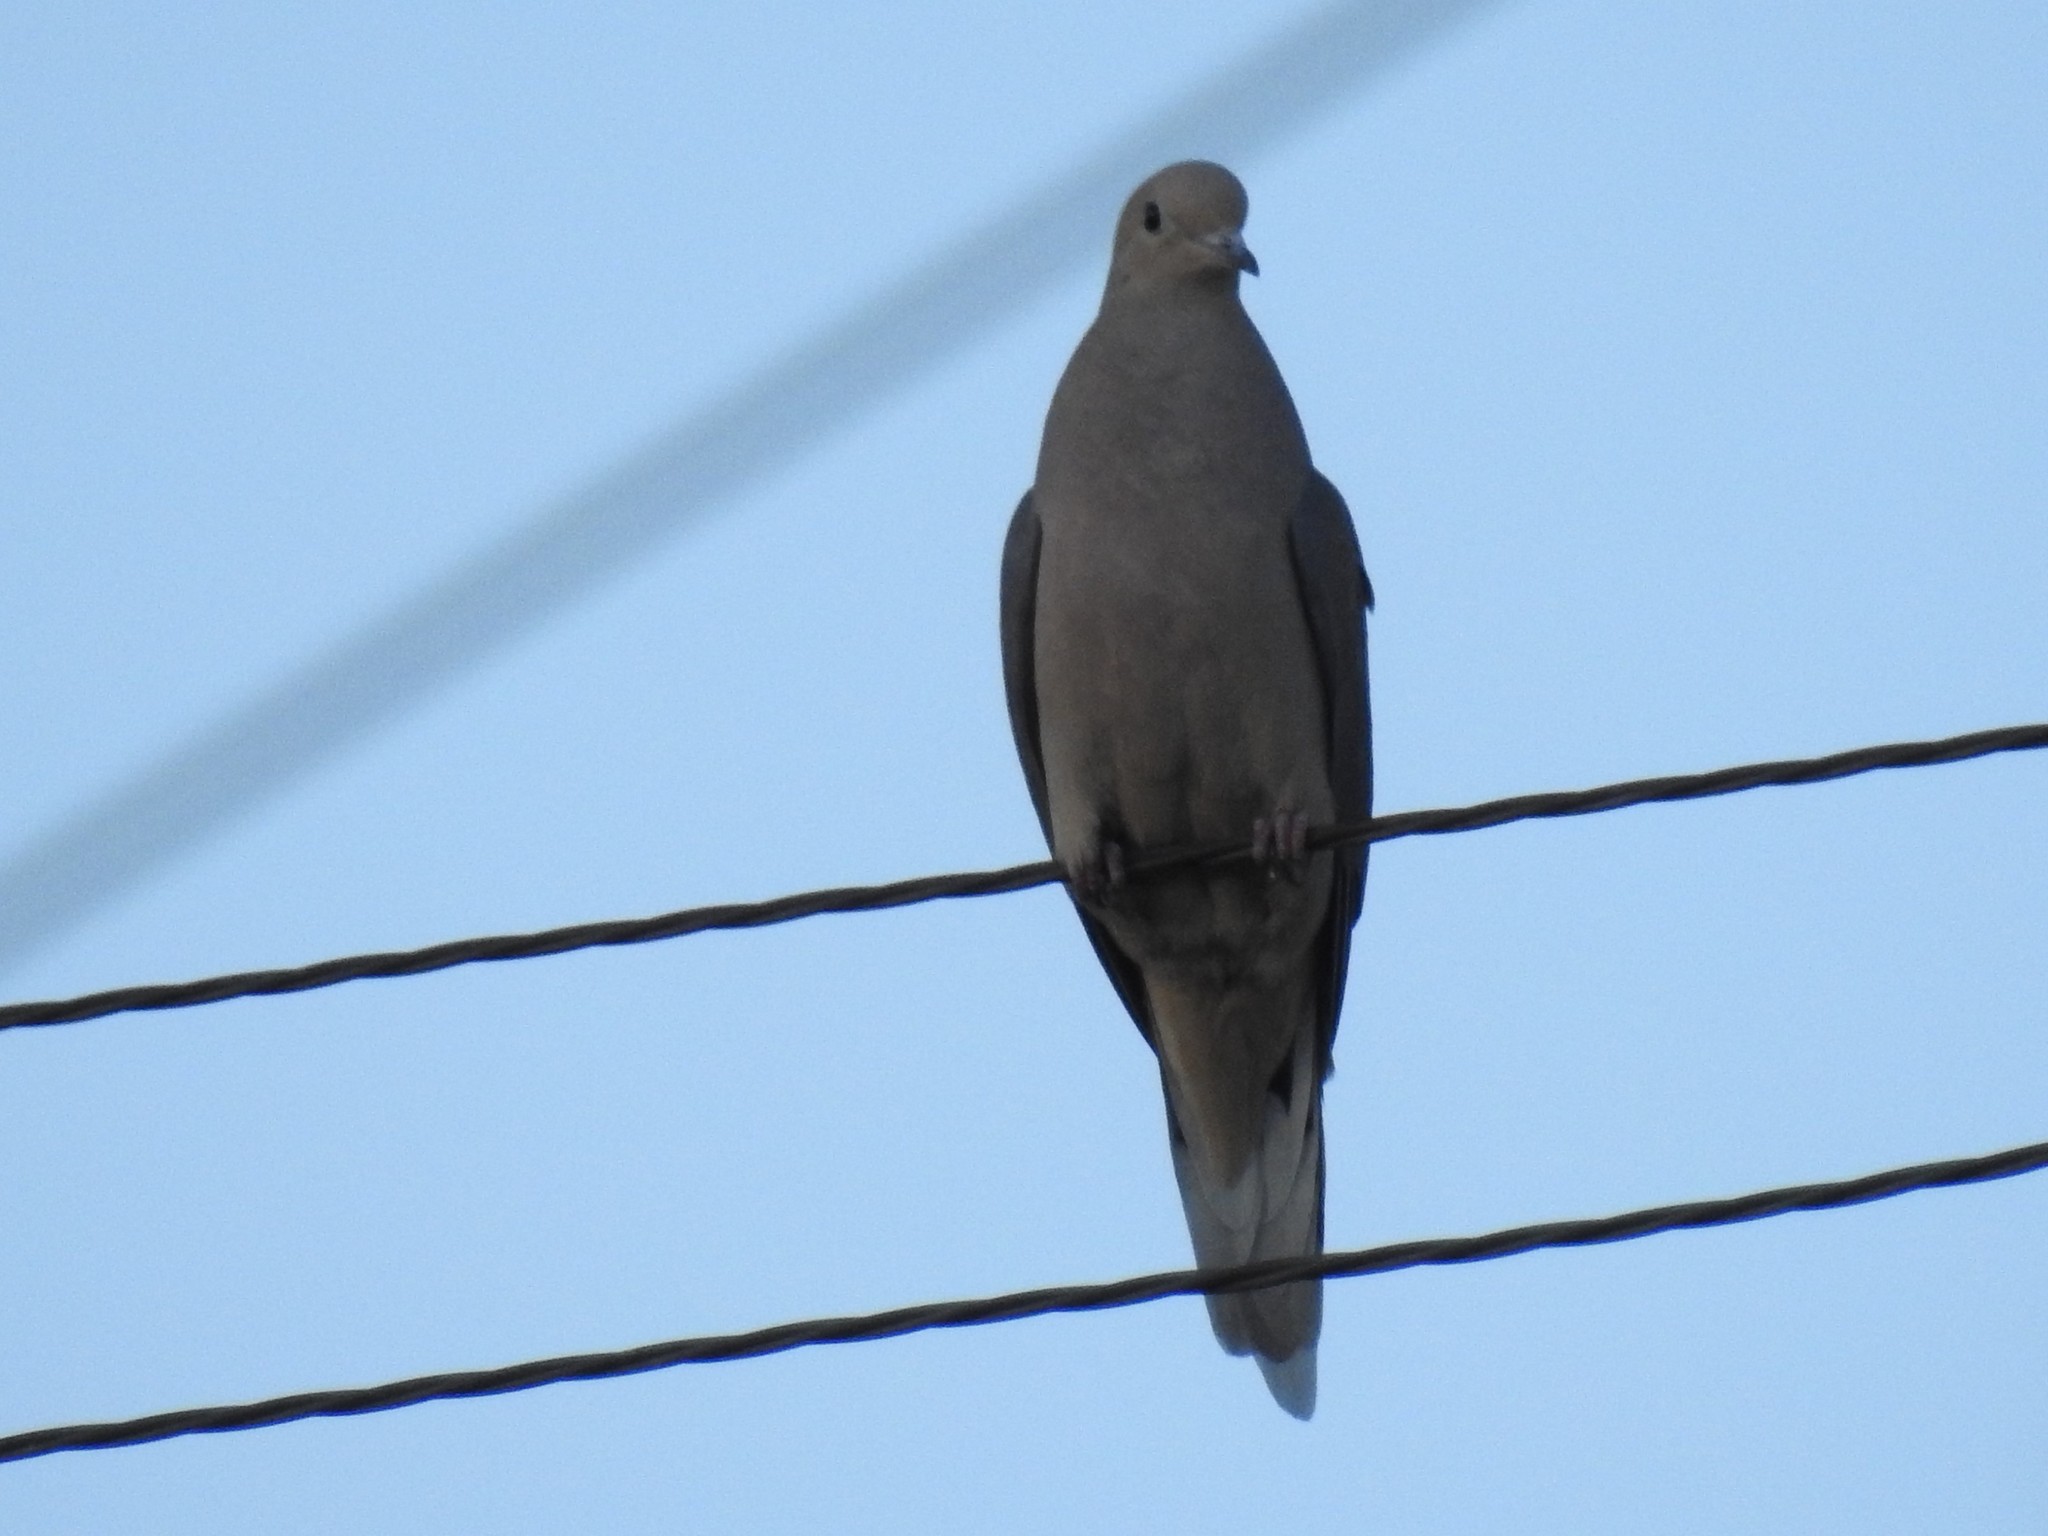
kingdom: Animalia
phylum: Chordata
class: Aves
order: Columbiformes
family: Columbidae
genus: Zenaida
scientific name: Zenaida macroura
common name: Mourning dove
